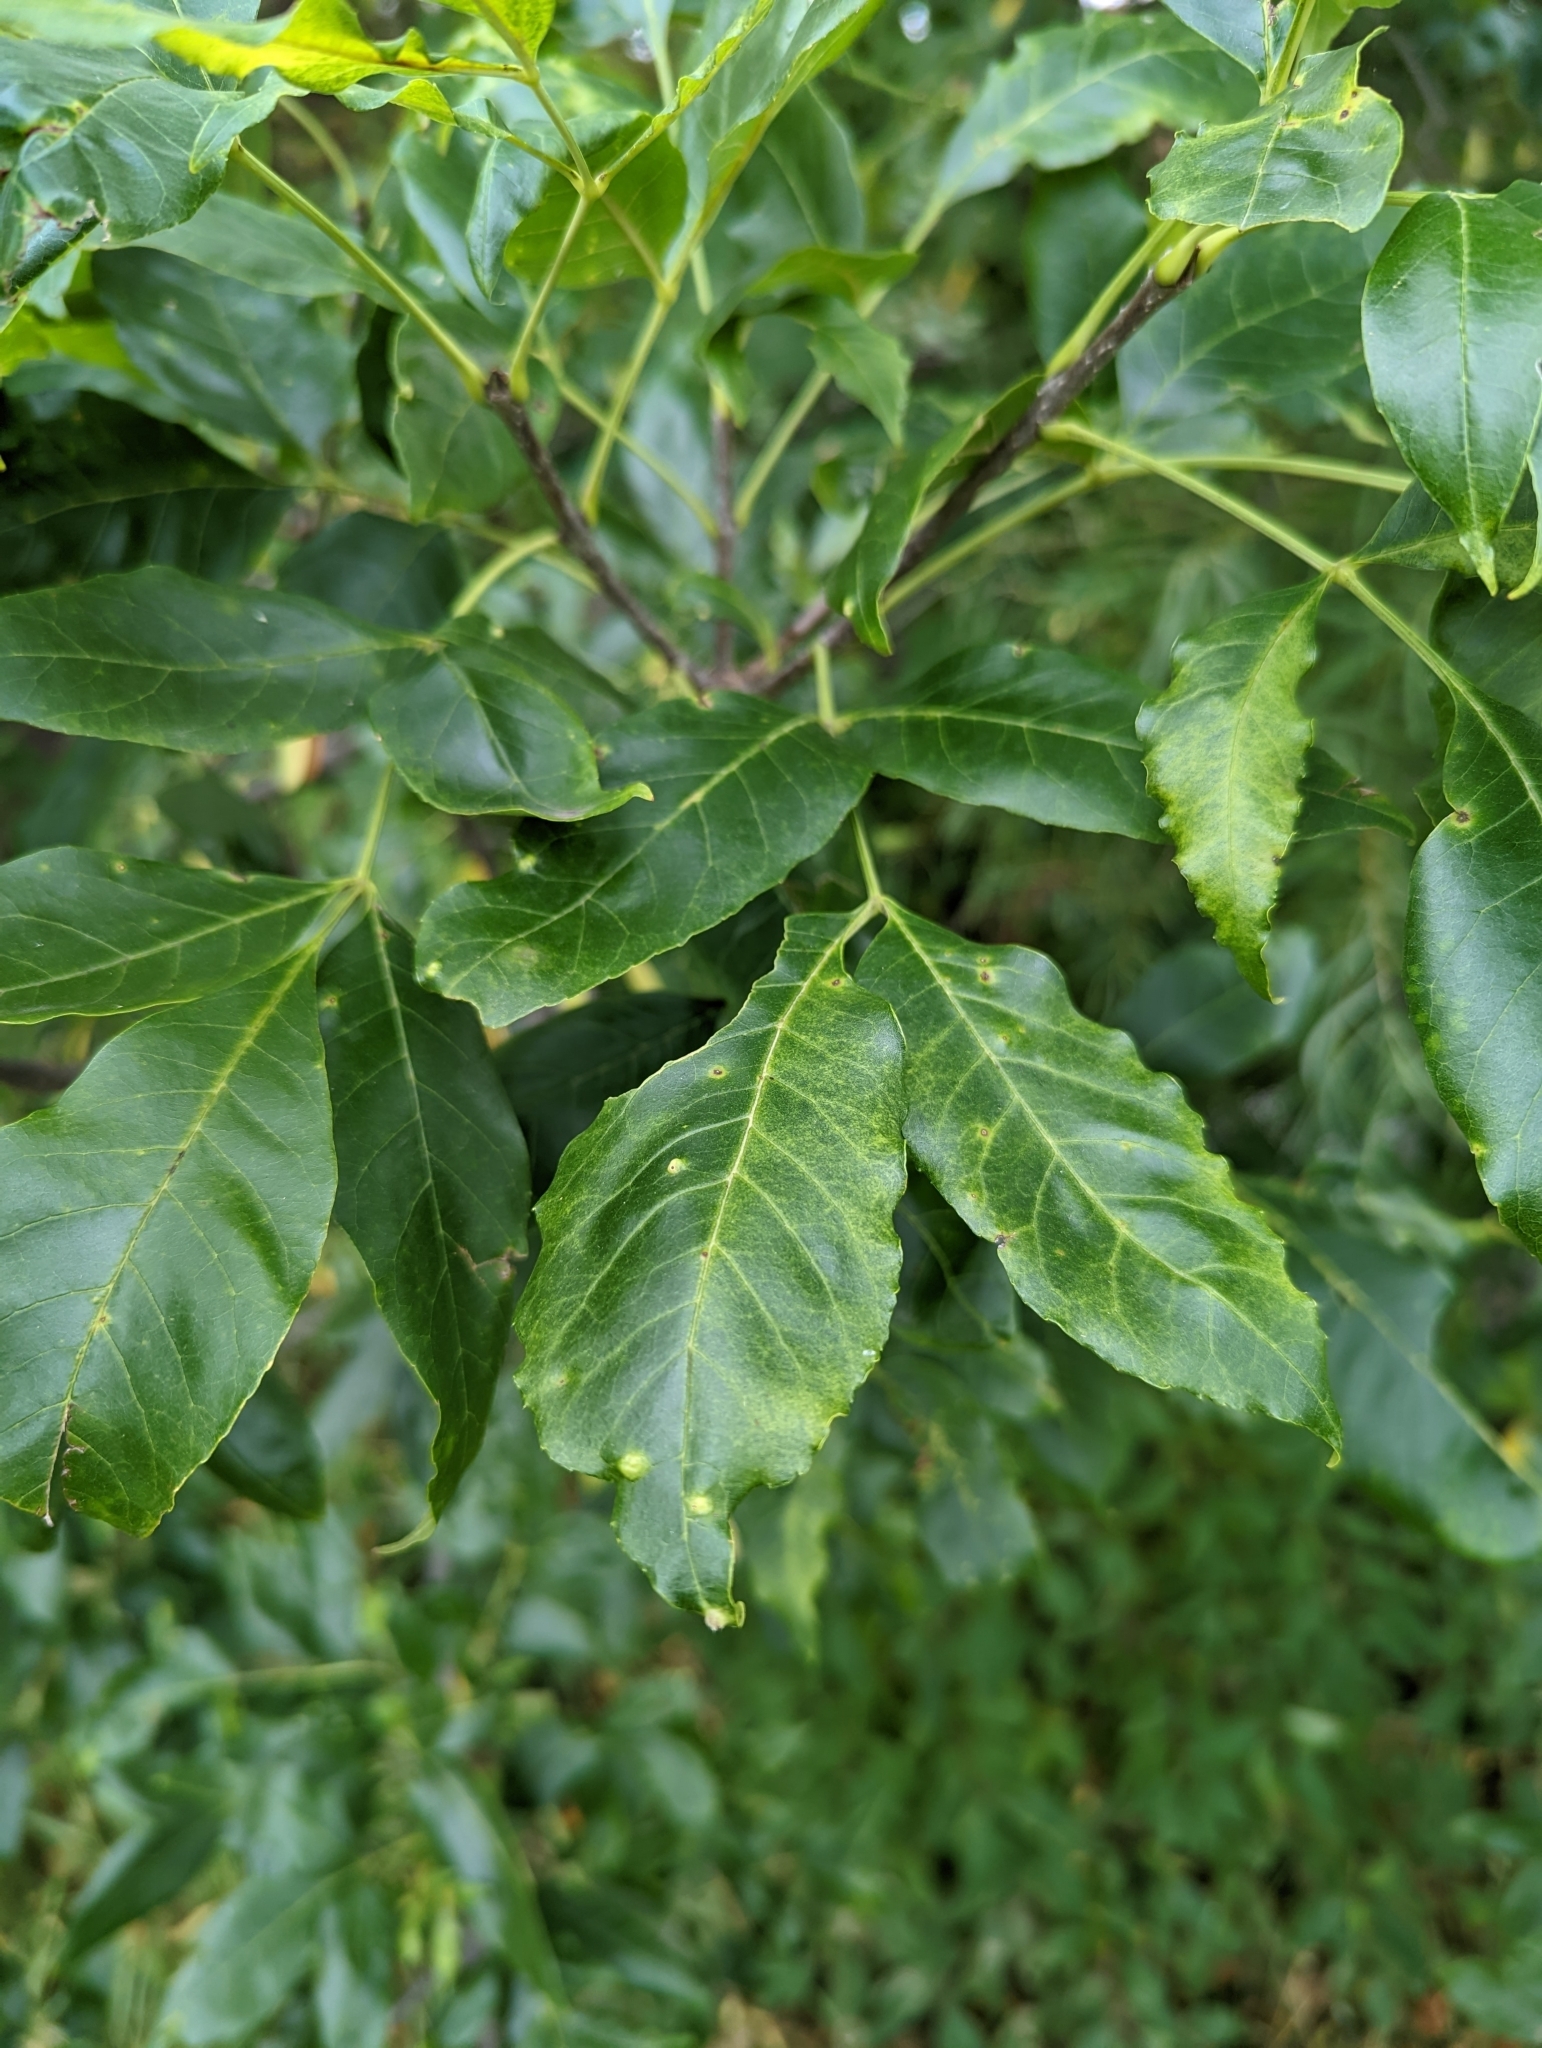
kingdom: Animalia
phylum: Arthropoda
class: Arachnida
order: Trombidiformes
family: Eriophyidae
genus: Aceria
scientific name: Aceria fraxinicola
